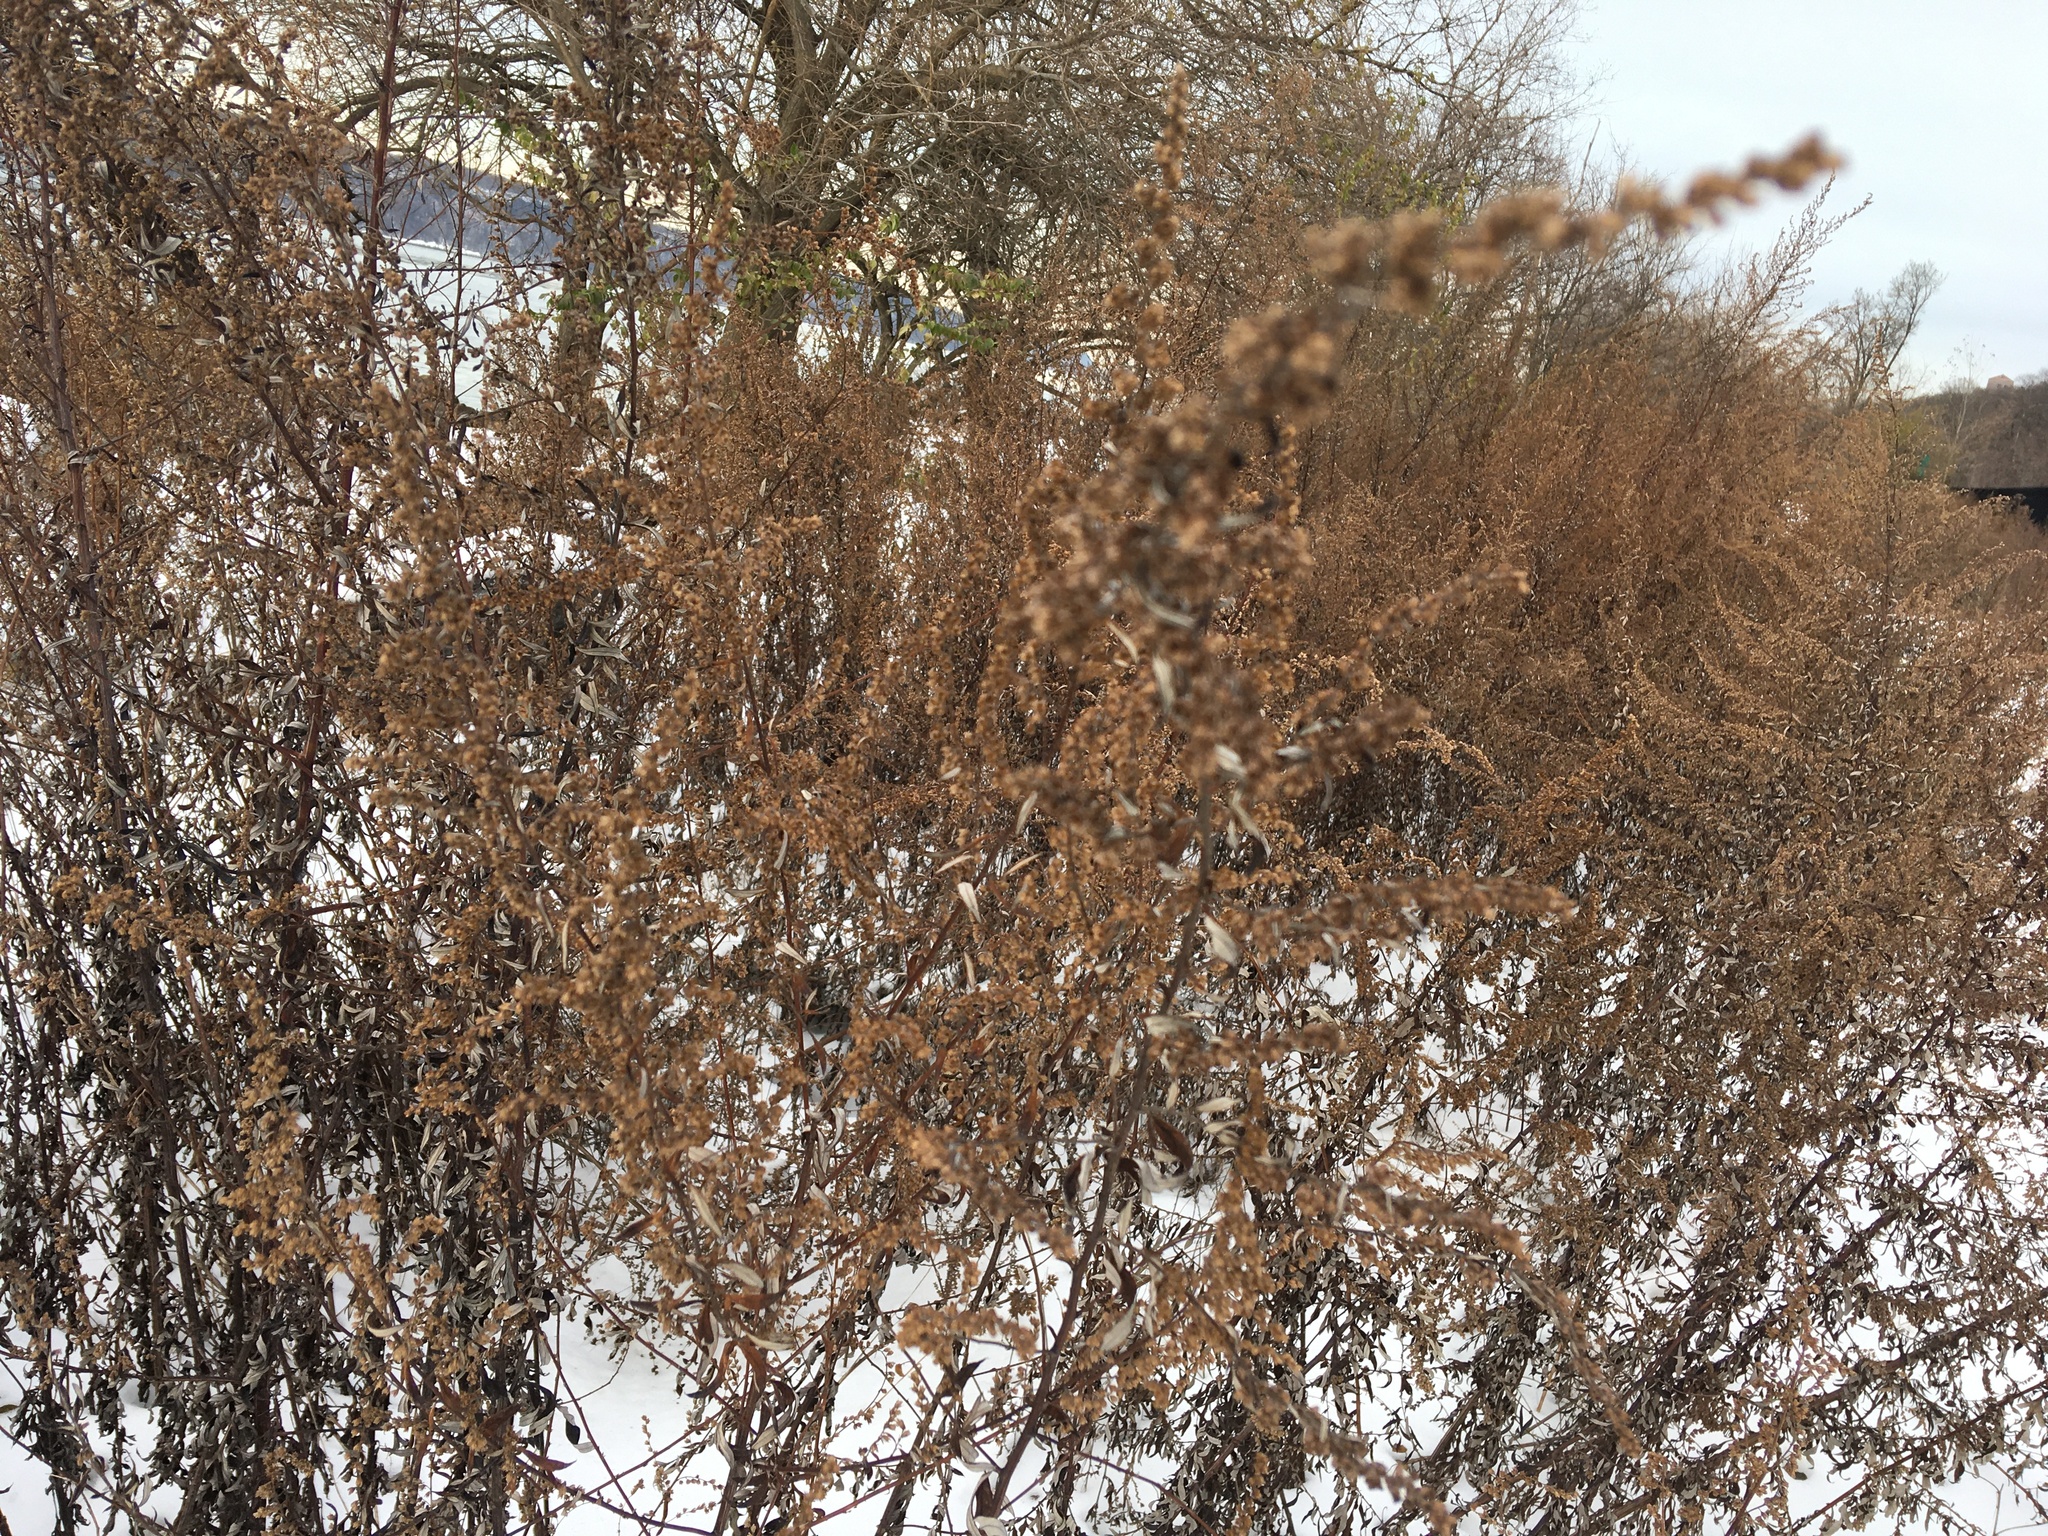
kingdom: Plantae
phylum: Tracheophyta
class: Magnoliopsida
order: Asterales
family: Asteraceae
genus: Artemisia
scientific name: Artemisia vulgaris
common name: Mugwort
